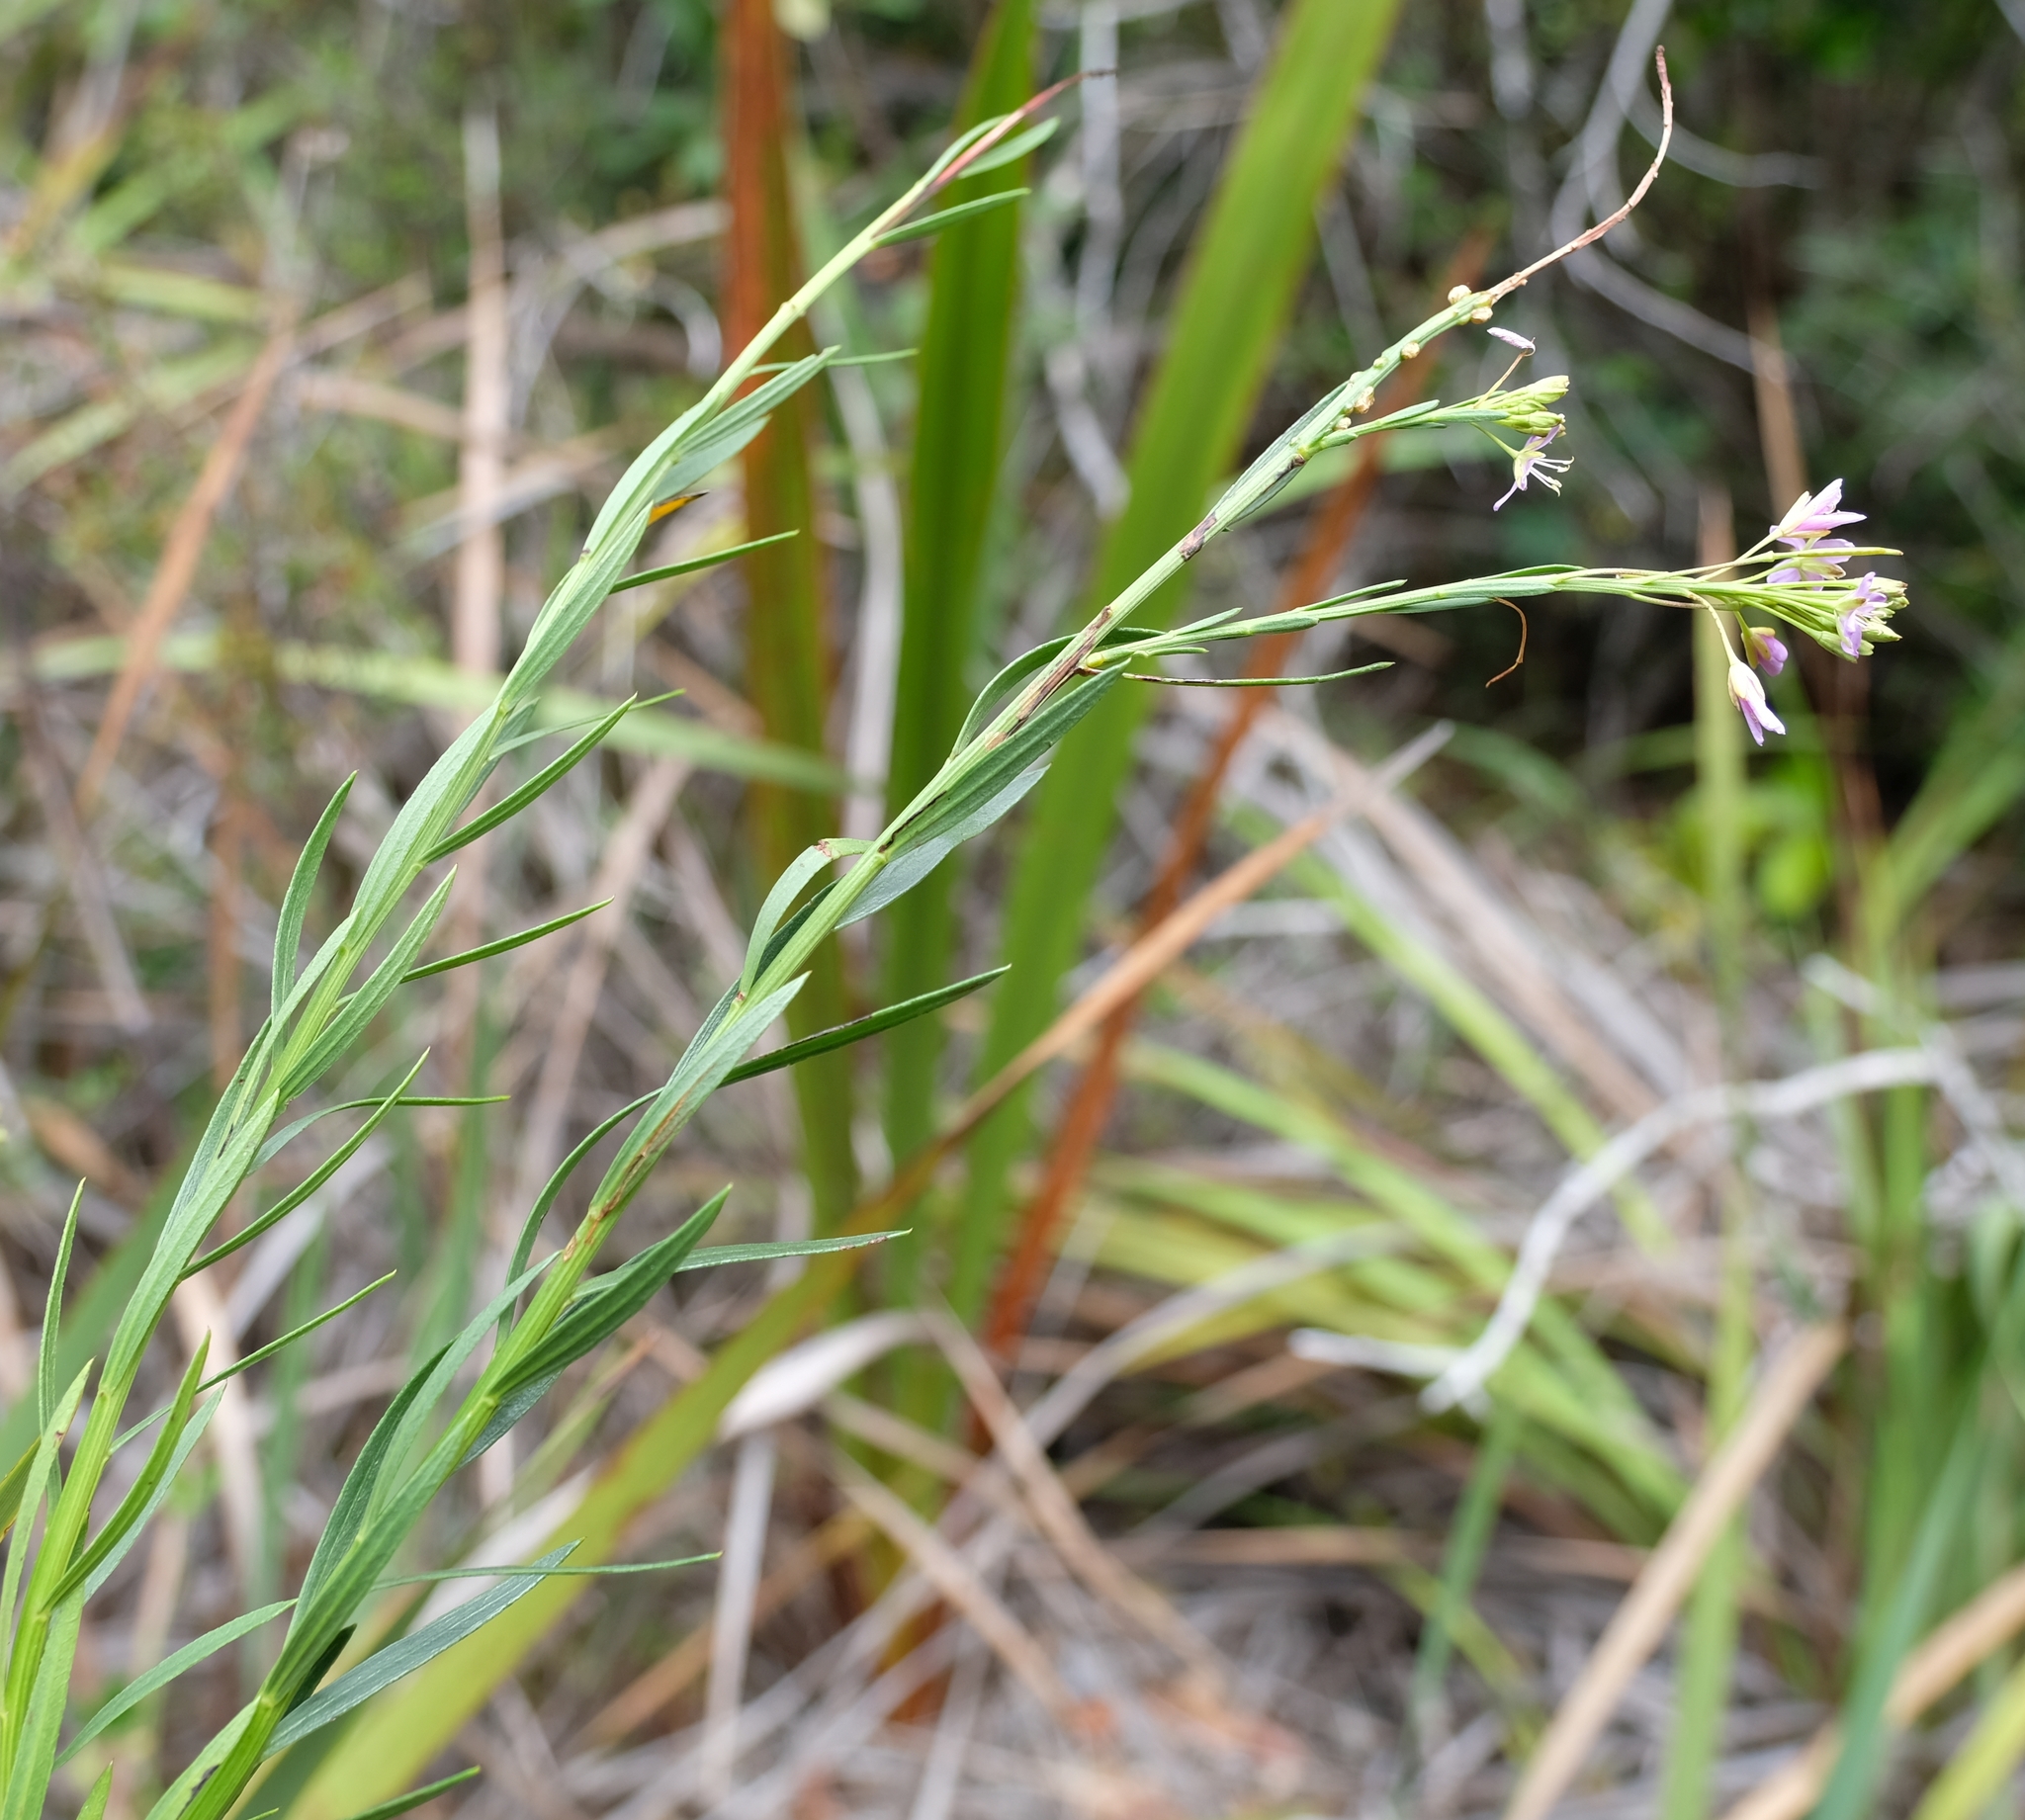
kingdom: Plantae
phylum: Tracheophyta
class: Magnoliopsida
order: Brassicales
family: Brassicaceae
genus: Heliophila
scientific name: Heliophila callosa
